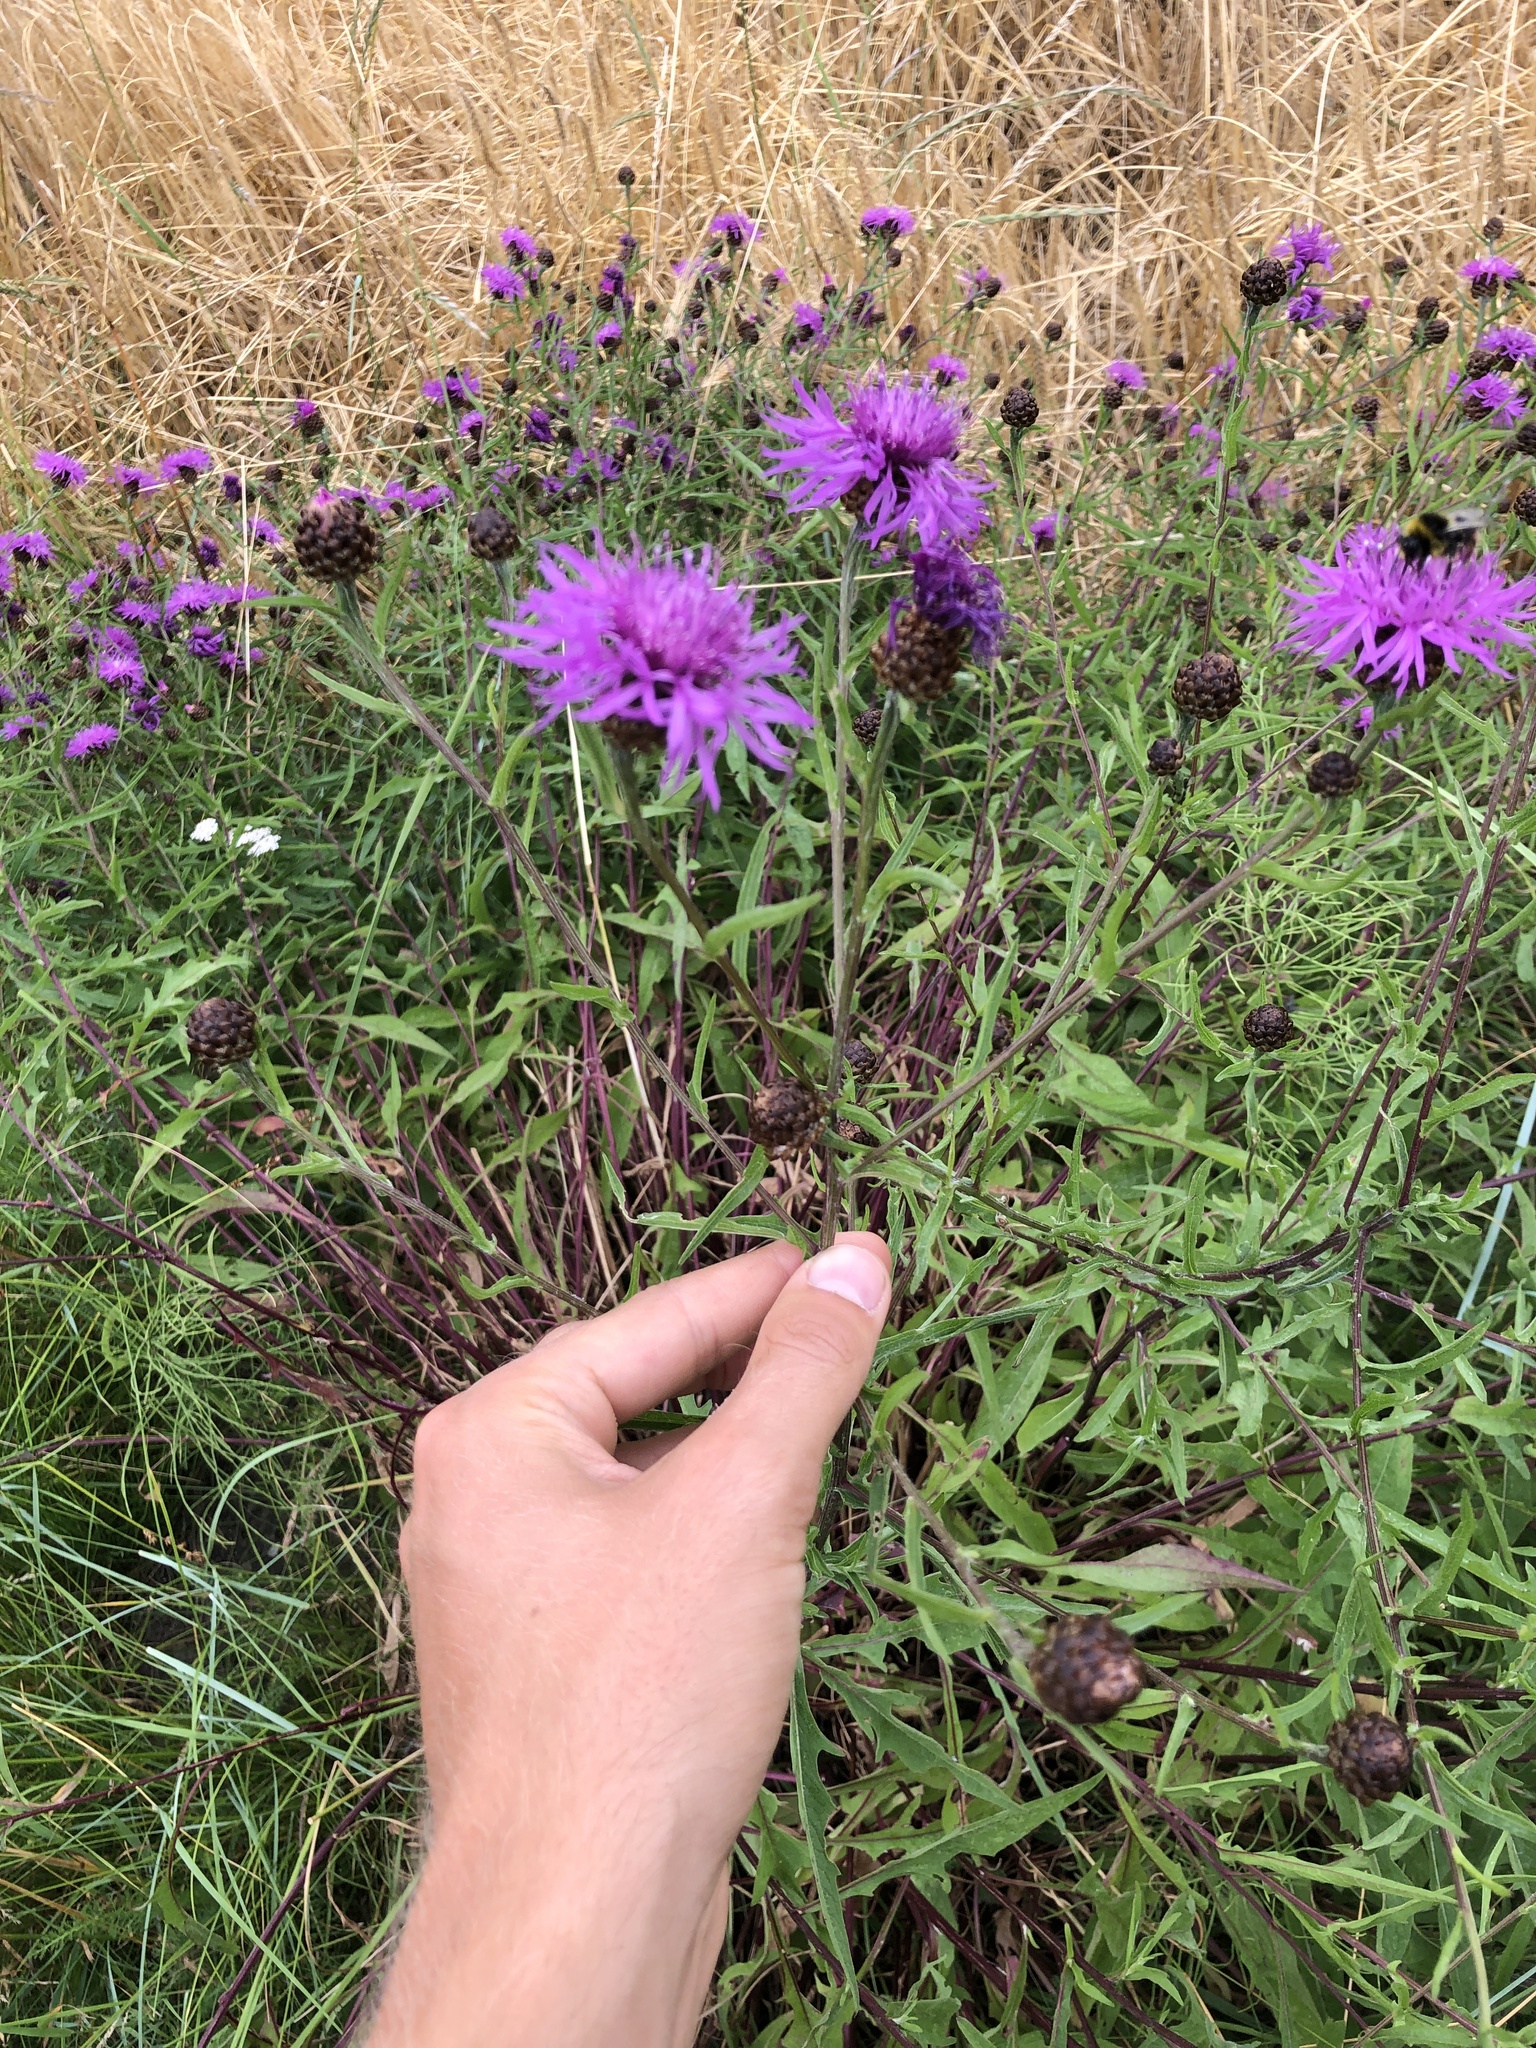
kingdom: Plantae
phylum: Tracheophyta
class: Magnoliopsida
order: Asterales
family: Asteraceae
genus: Centaurea
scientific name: Centaurea jacea
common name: Brown knapweed
